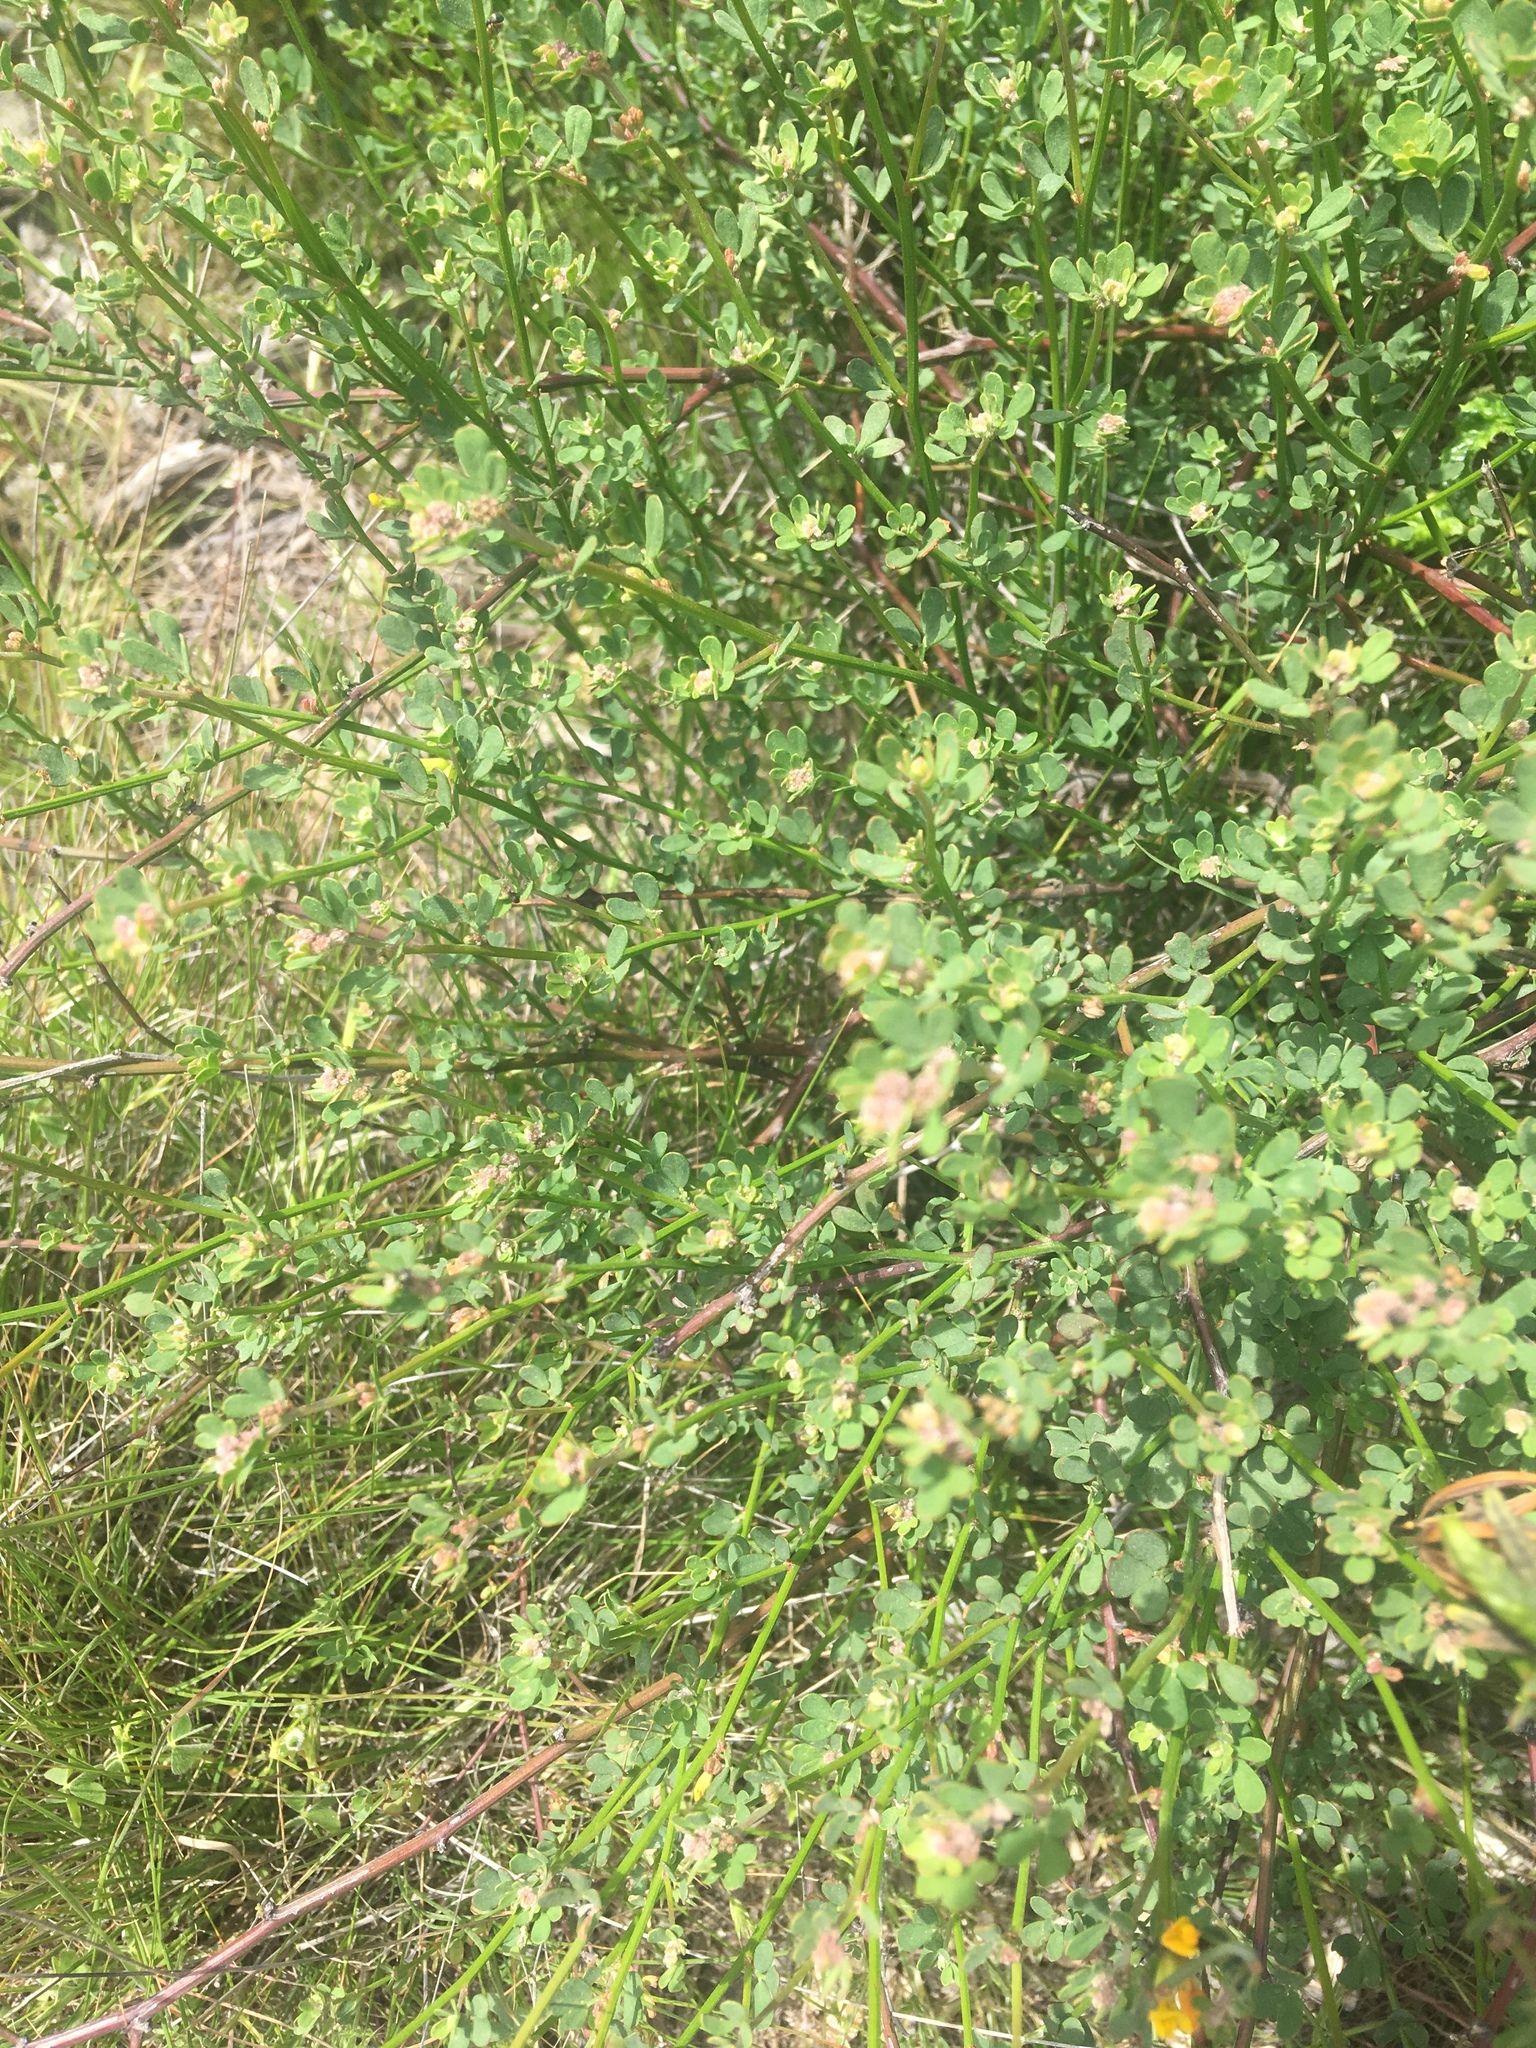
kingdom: Plantae
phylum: Tracheophyta
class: Magnoliopsida
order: Fabales
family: Fabaceae
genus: Acmispon
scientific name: Acmispon glaber
